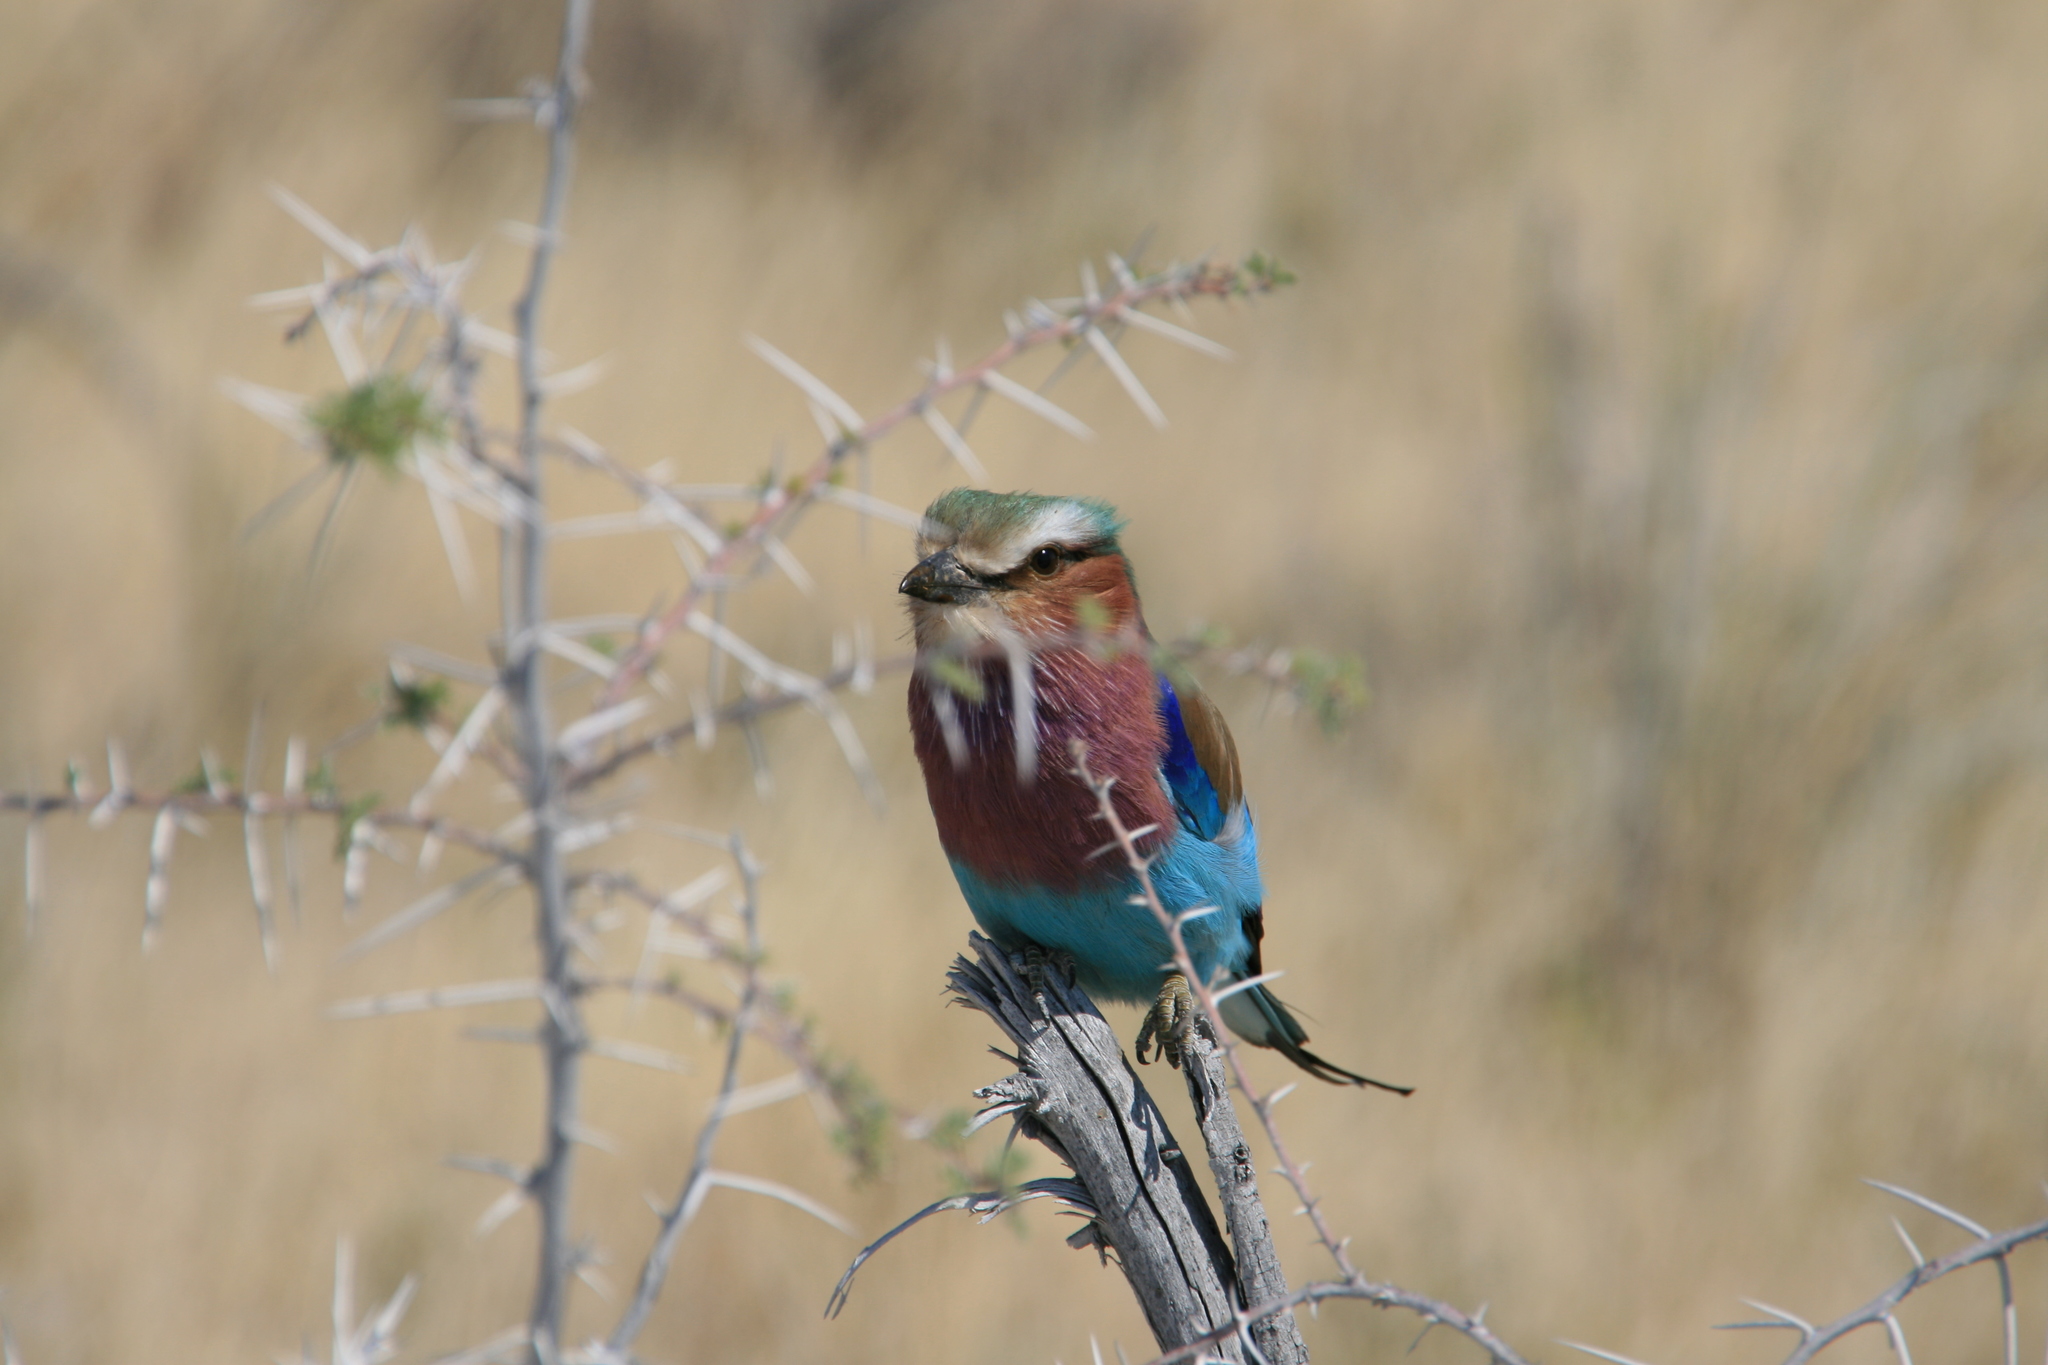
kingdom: Animalia
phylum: Chordata
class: Aves
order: Coraciiformes
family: Coraciidae
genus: Coracias
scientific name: Coracias caudatus
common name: Lilac-breasted roller
